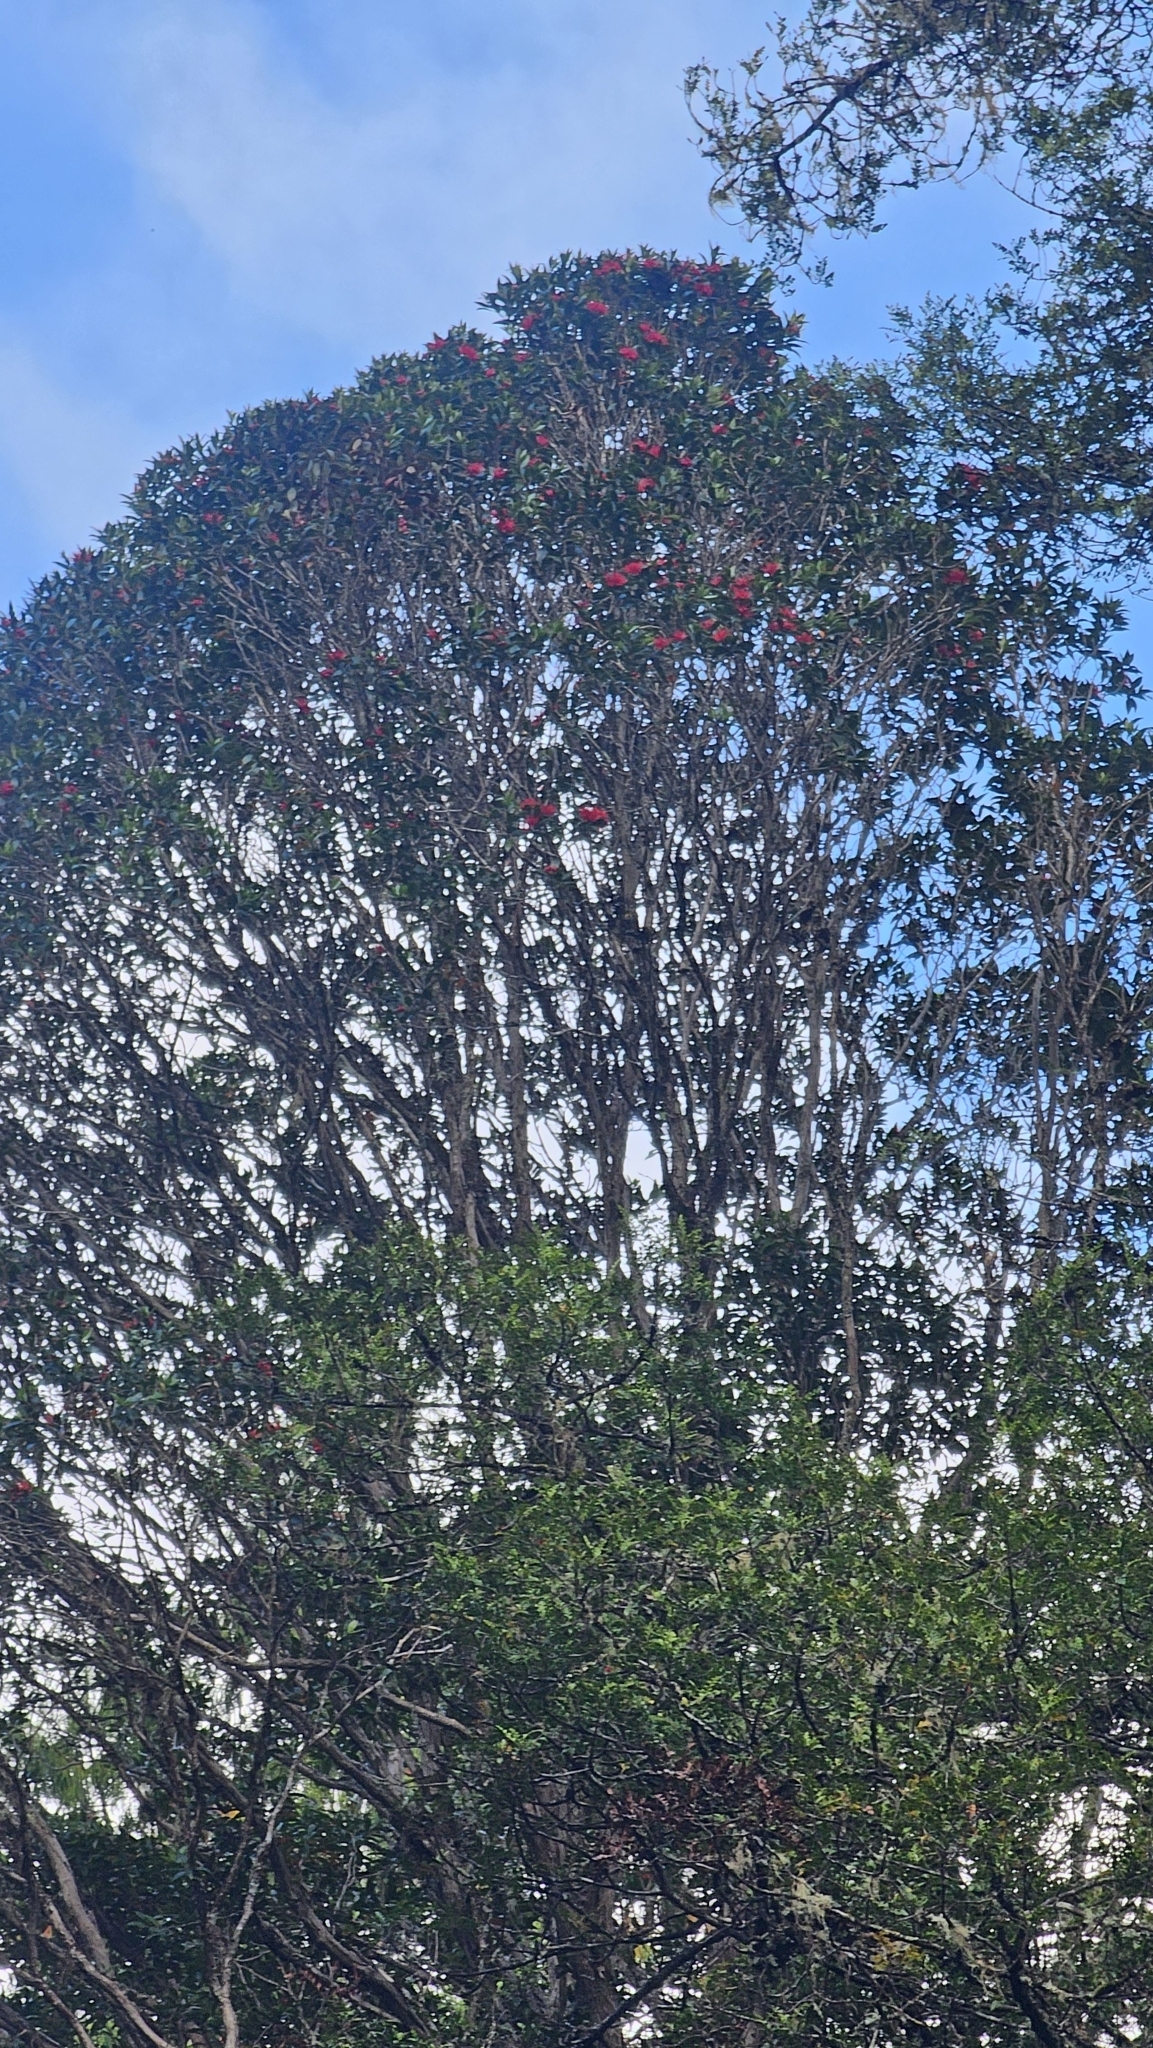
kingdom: Plantae
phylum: Tracheophyta
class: Magnoliopsida
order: Myrtales
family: Myrtaceae
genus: Metrosideros
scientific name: Metrosideros umbellata
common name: Southern rata
